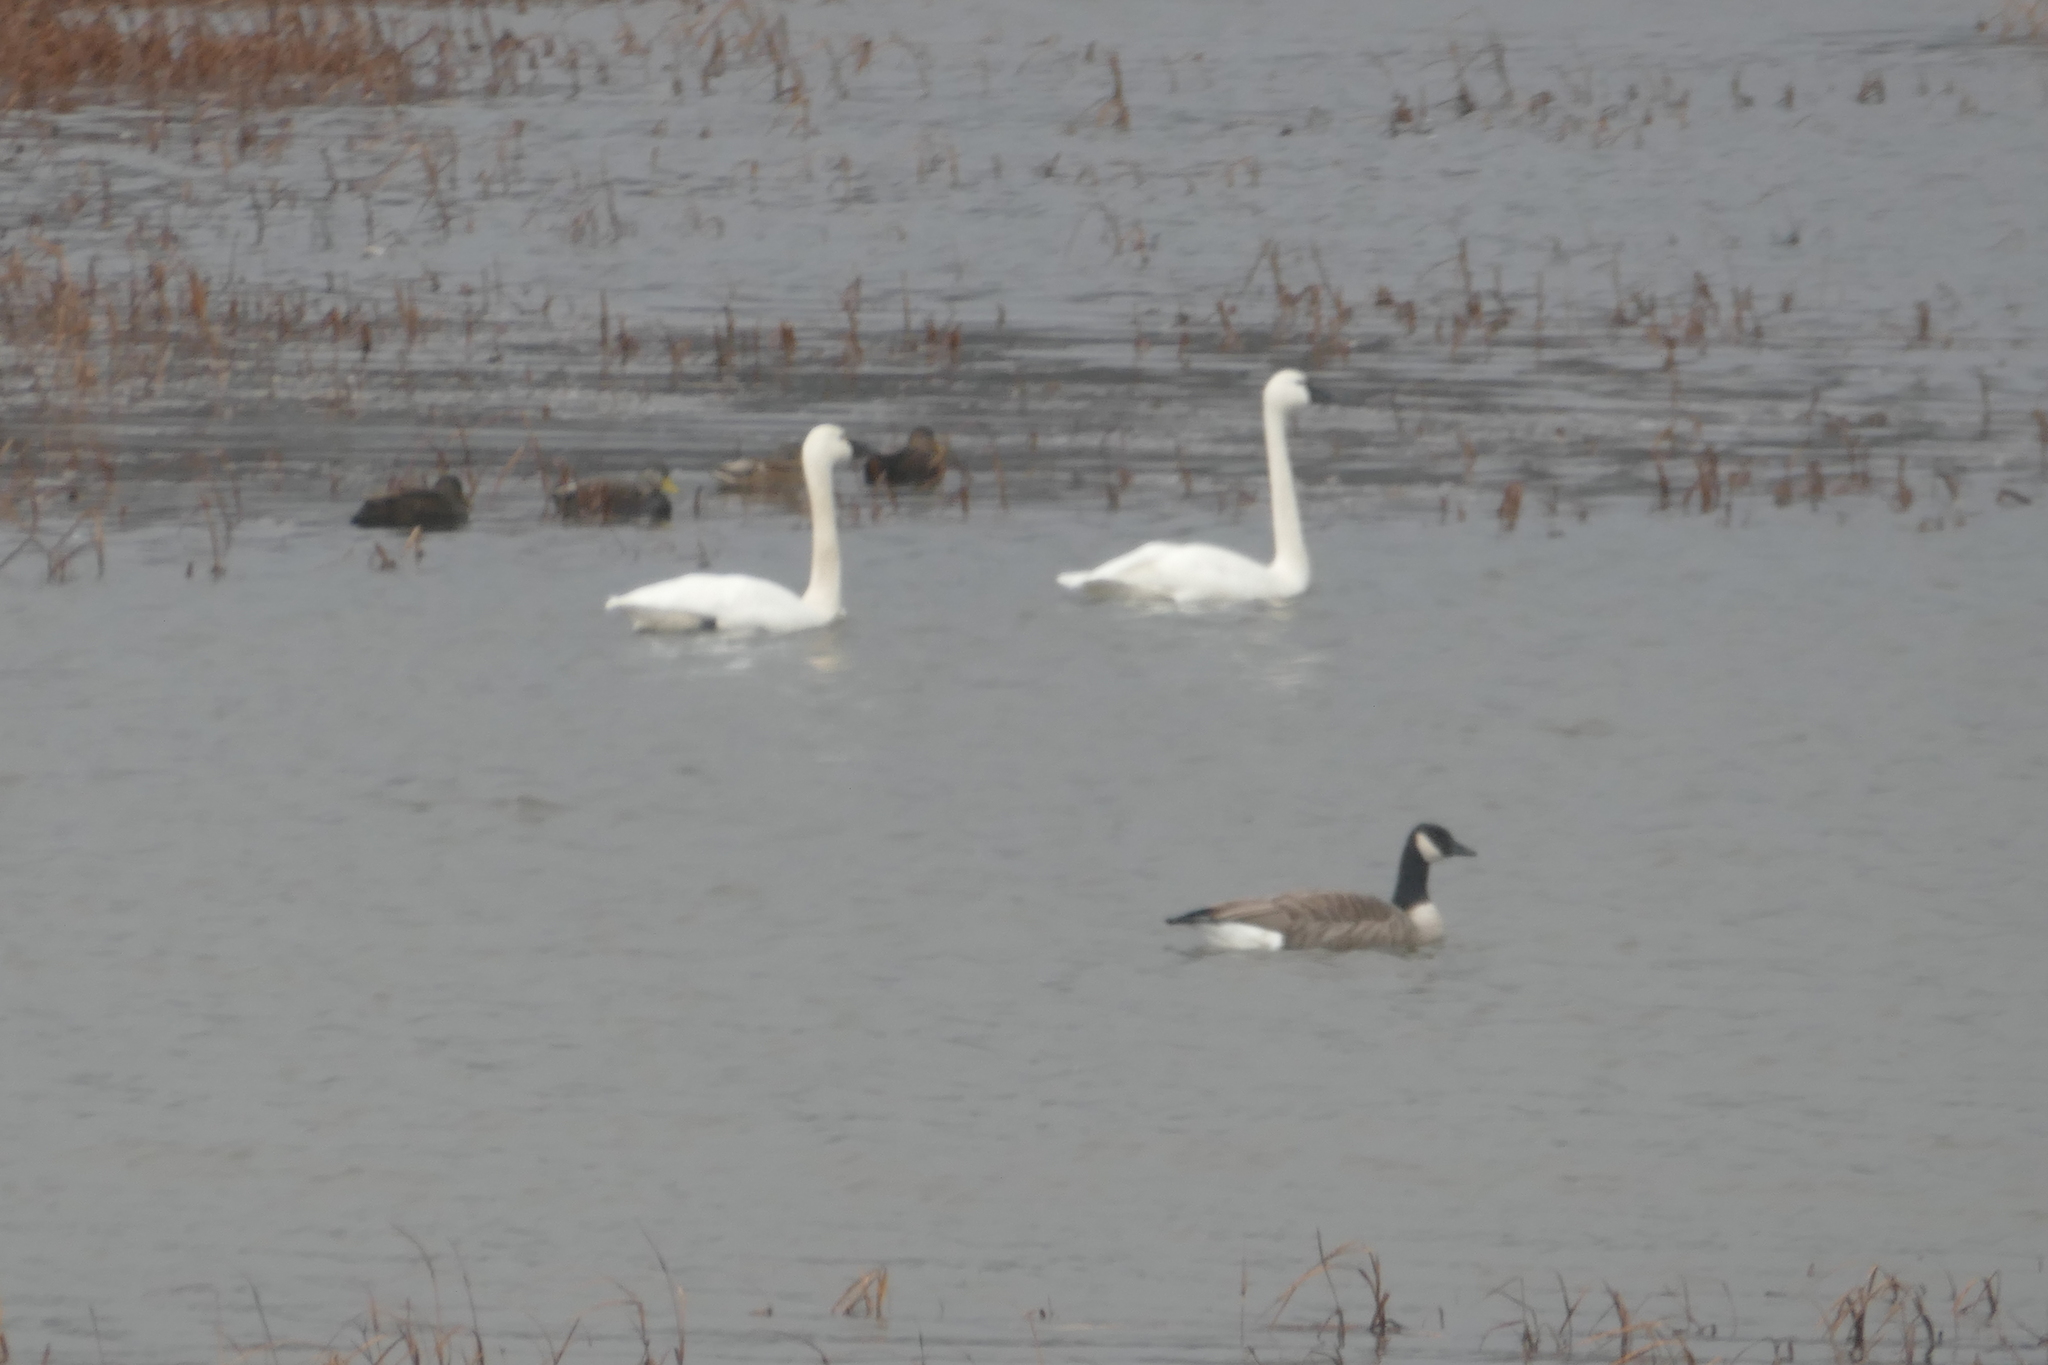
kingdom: Animalia
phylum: Chordata
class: Aves
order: Anseriformes
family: Anatidae
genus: Cygnus
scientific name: Cygnus columbianus
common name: Tundra swan
